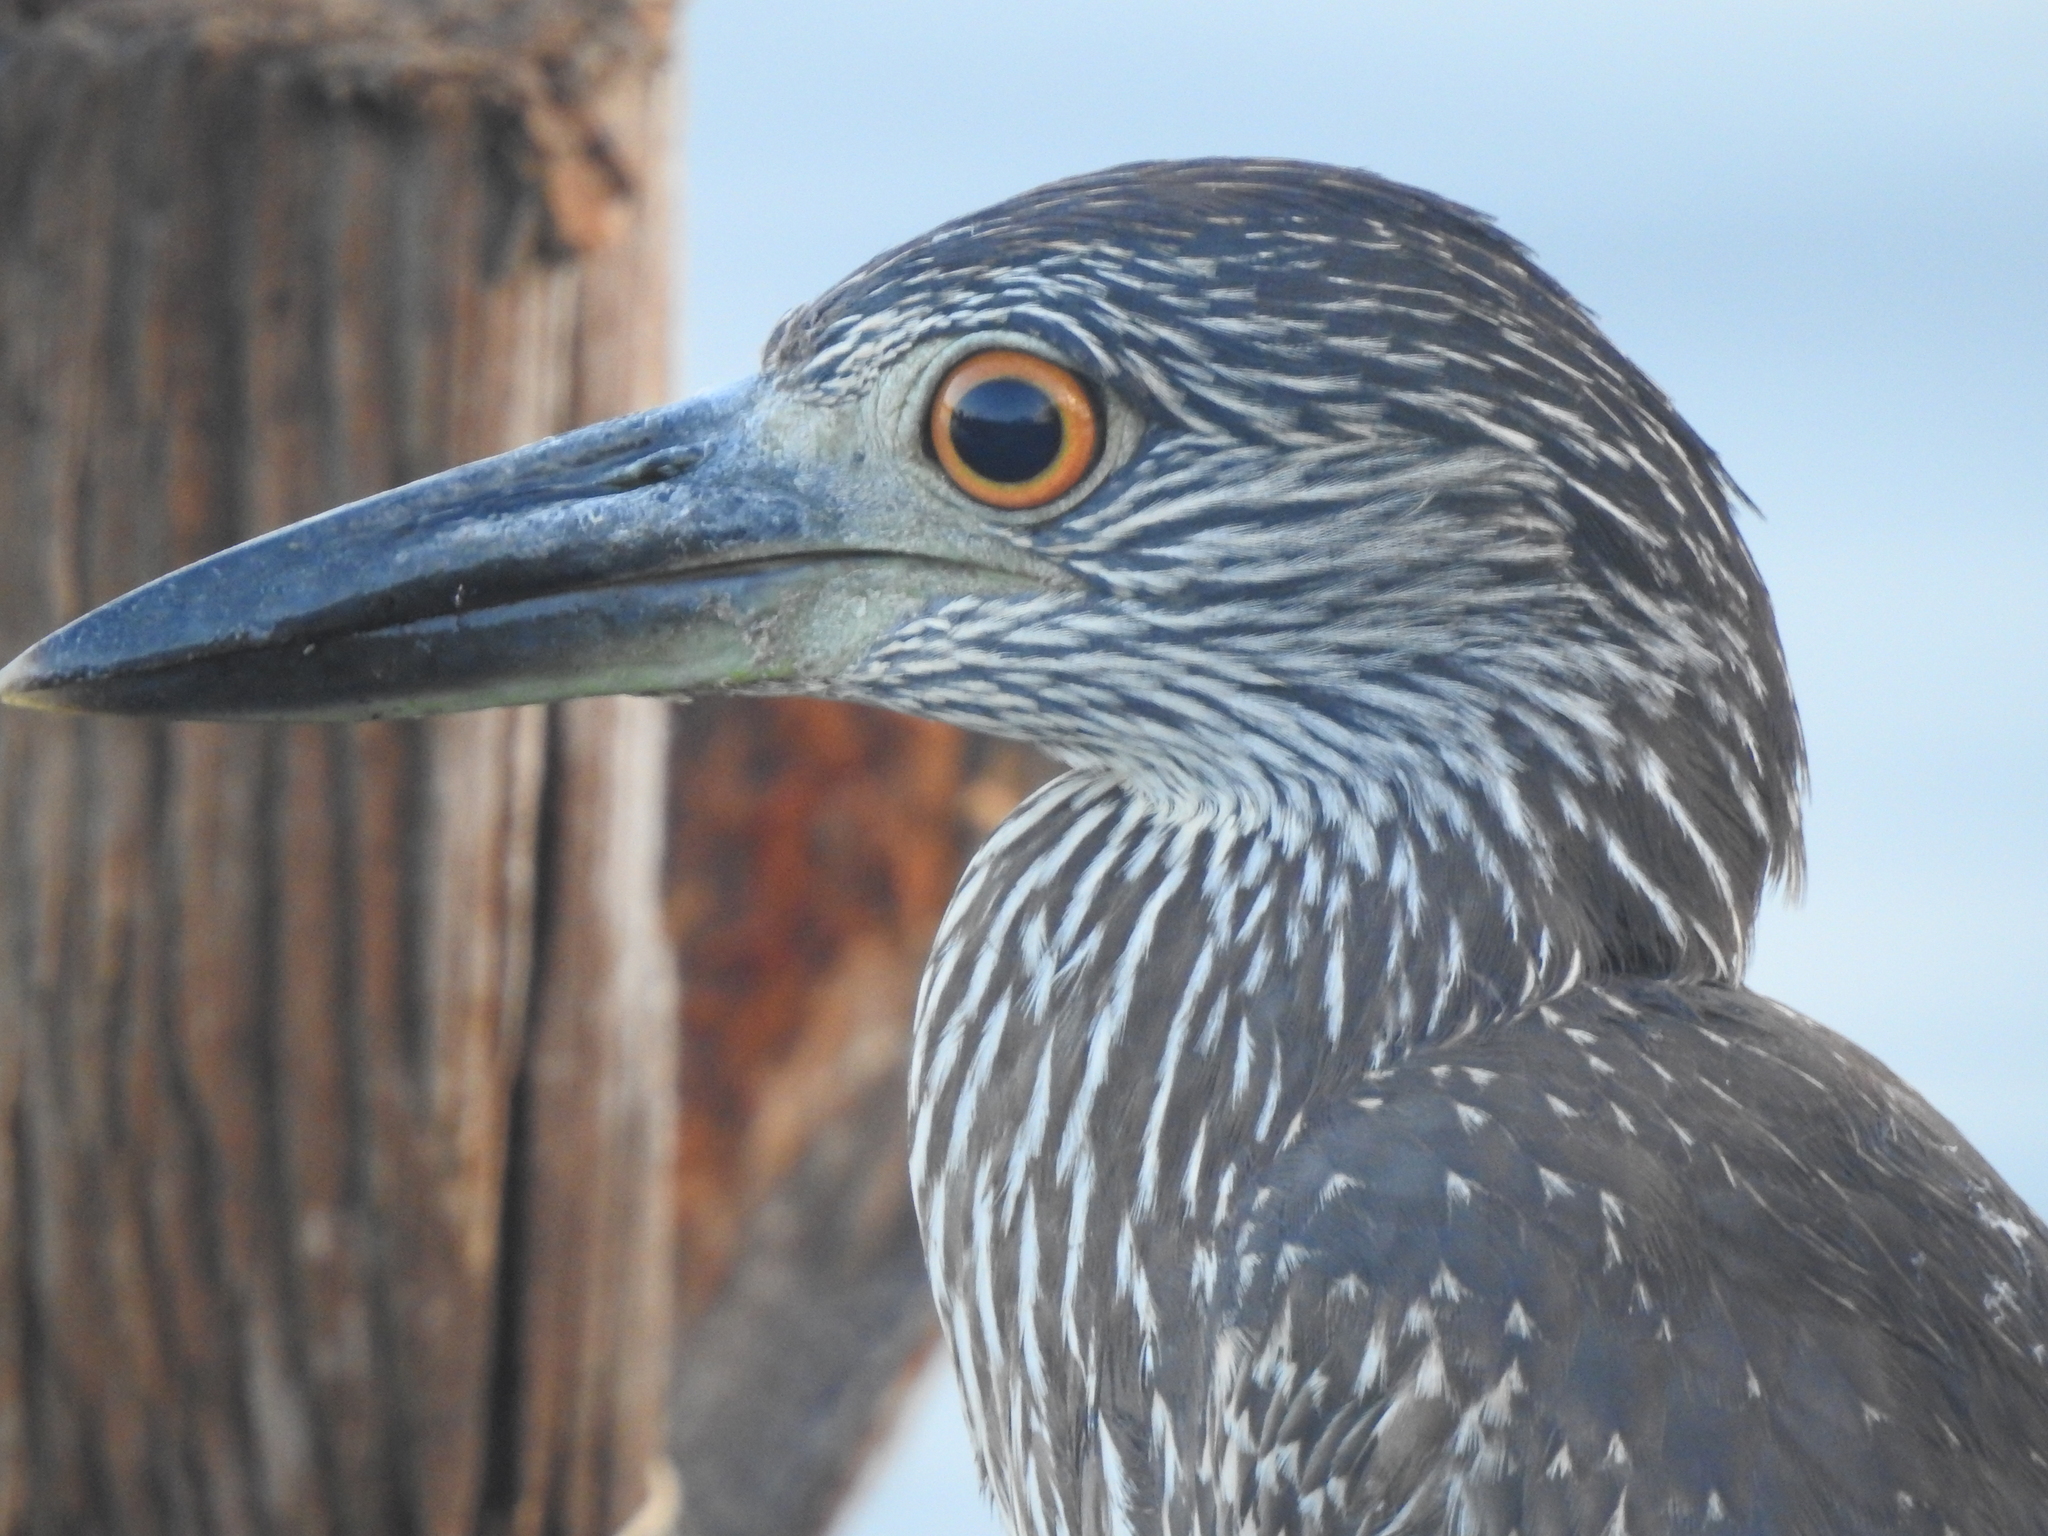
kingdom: Animalia
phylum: Chordata
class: Aves
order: Pelecaniformes
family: Ardeidae
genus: Nyctanassa
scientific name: Nyctanassa violacea
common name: Yellow-crowned night heron
